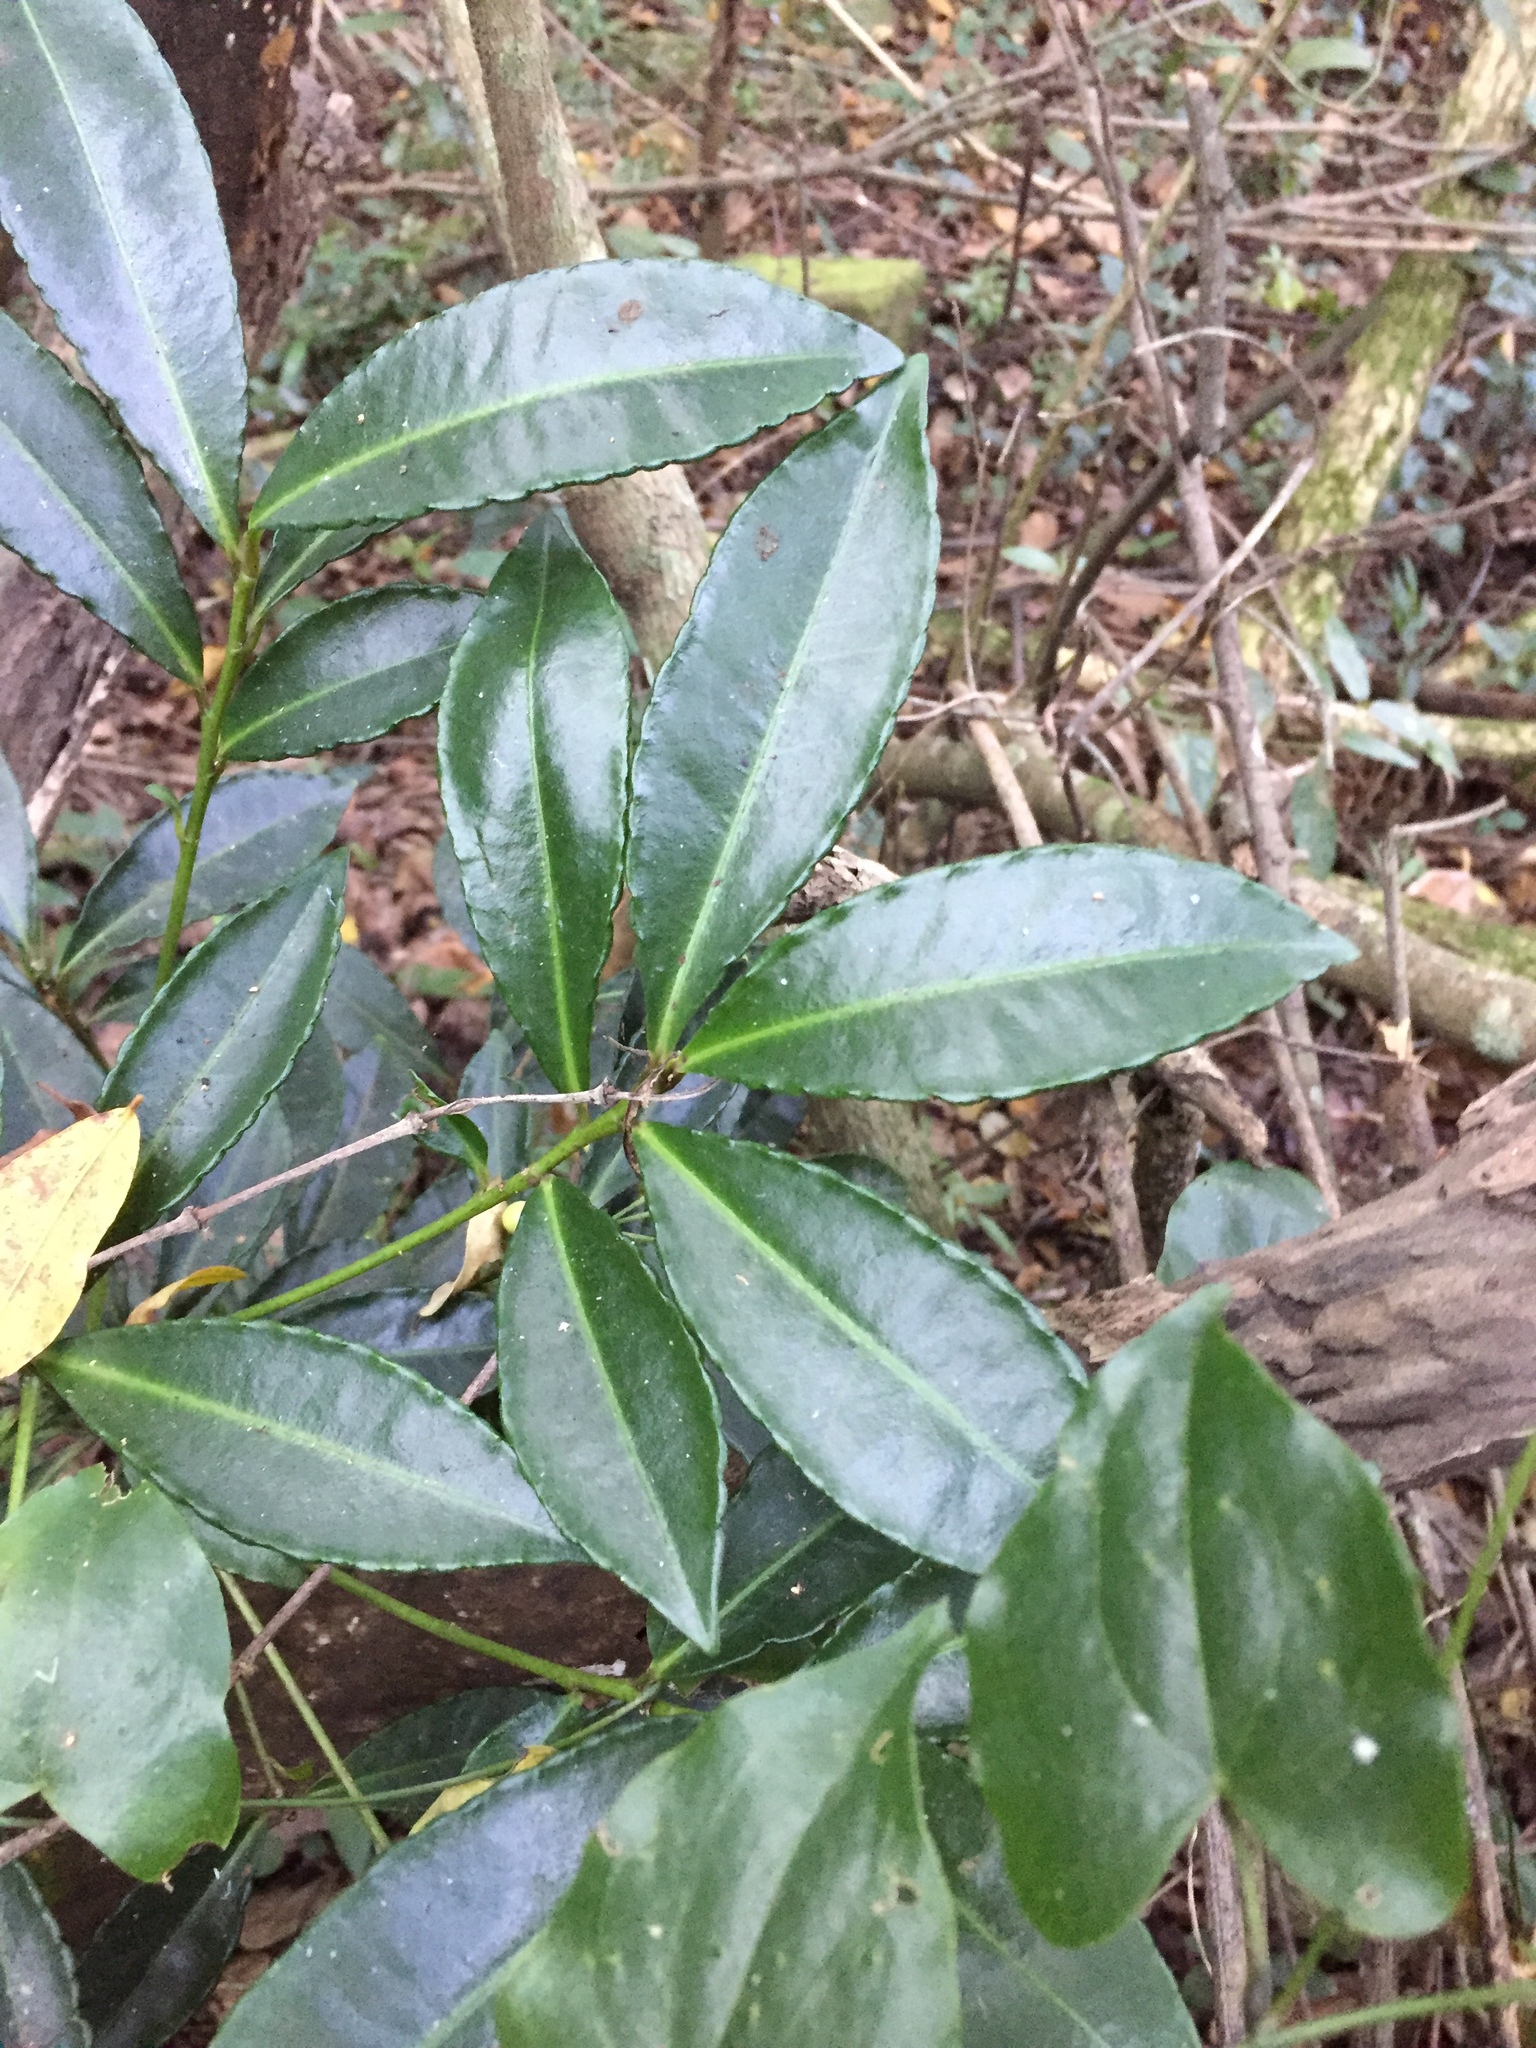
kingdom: Plantae
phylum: Tracheophyta
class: Magnoliopsida
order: Ericales
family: Primulaceae
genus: Ardisia
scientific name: Ardisia crenata
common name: Hen's eyes
